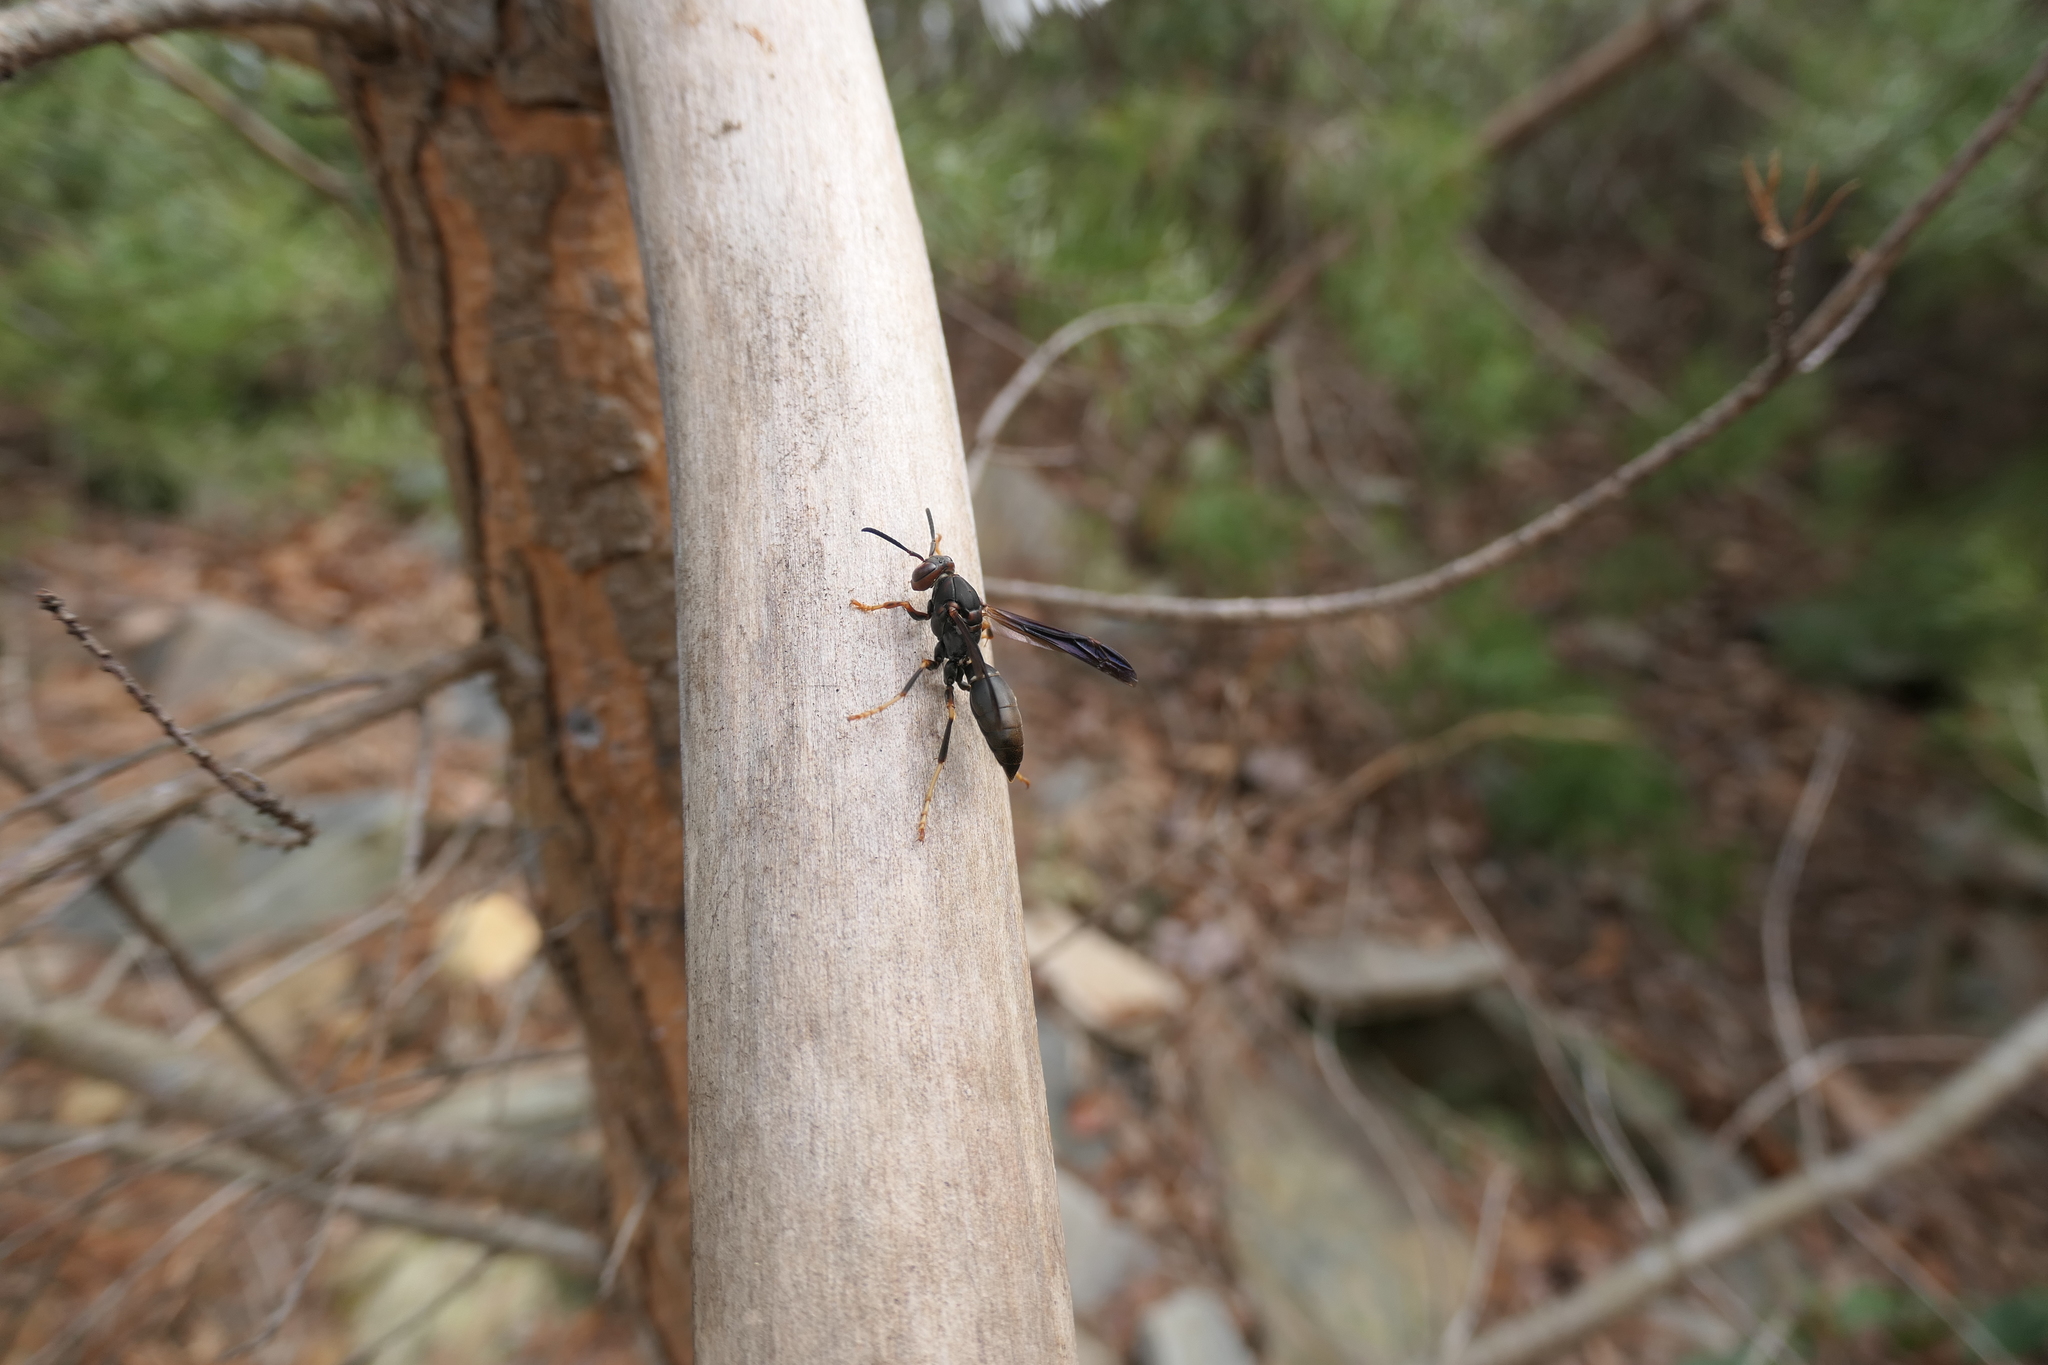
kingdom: Animalia
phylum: Arthropoda
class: Insecta
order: Hymenoptera
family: Eumenidae
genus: Polistes
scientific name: Polistes metricus
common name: Metric paper wasp
